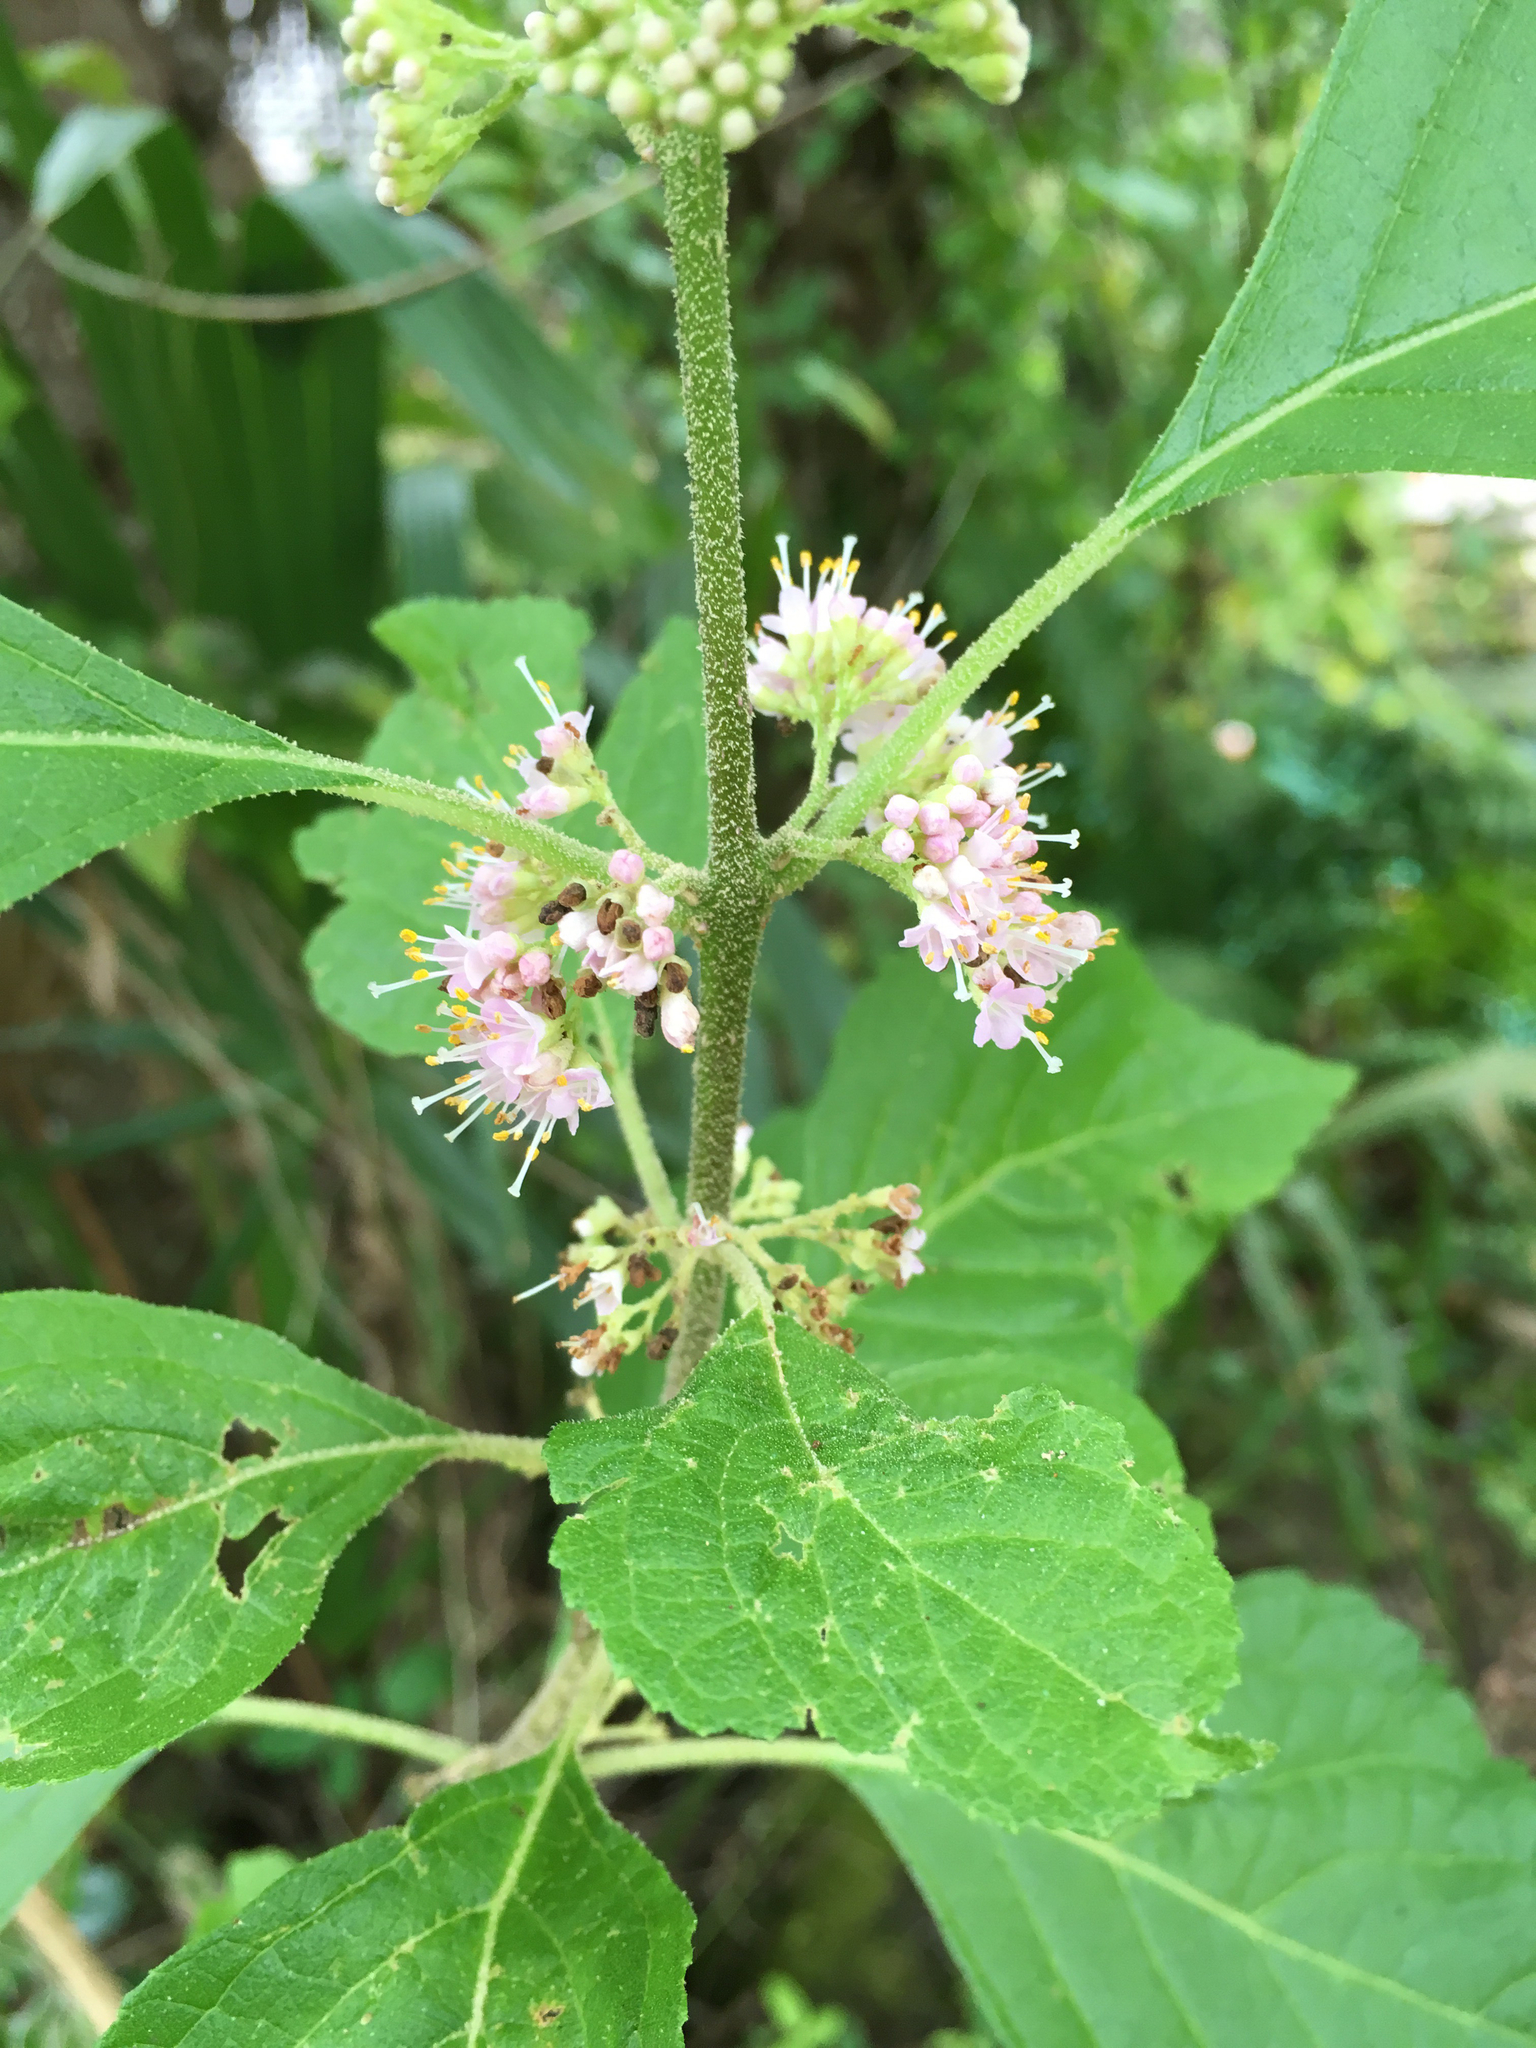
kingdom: Plantae
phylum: Tracheophyta
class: Magnoliopsida
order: Lamiales
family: Lamiaceae
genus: Callicarpa
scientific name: Callicarpa americana
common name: American beautyberry
